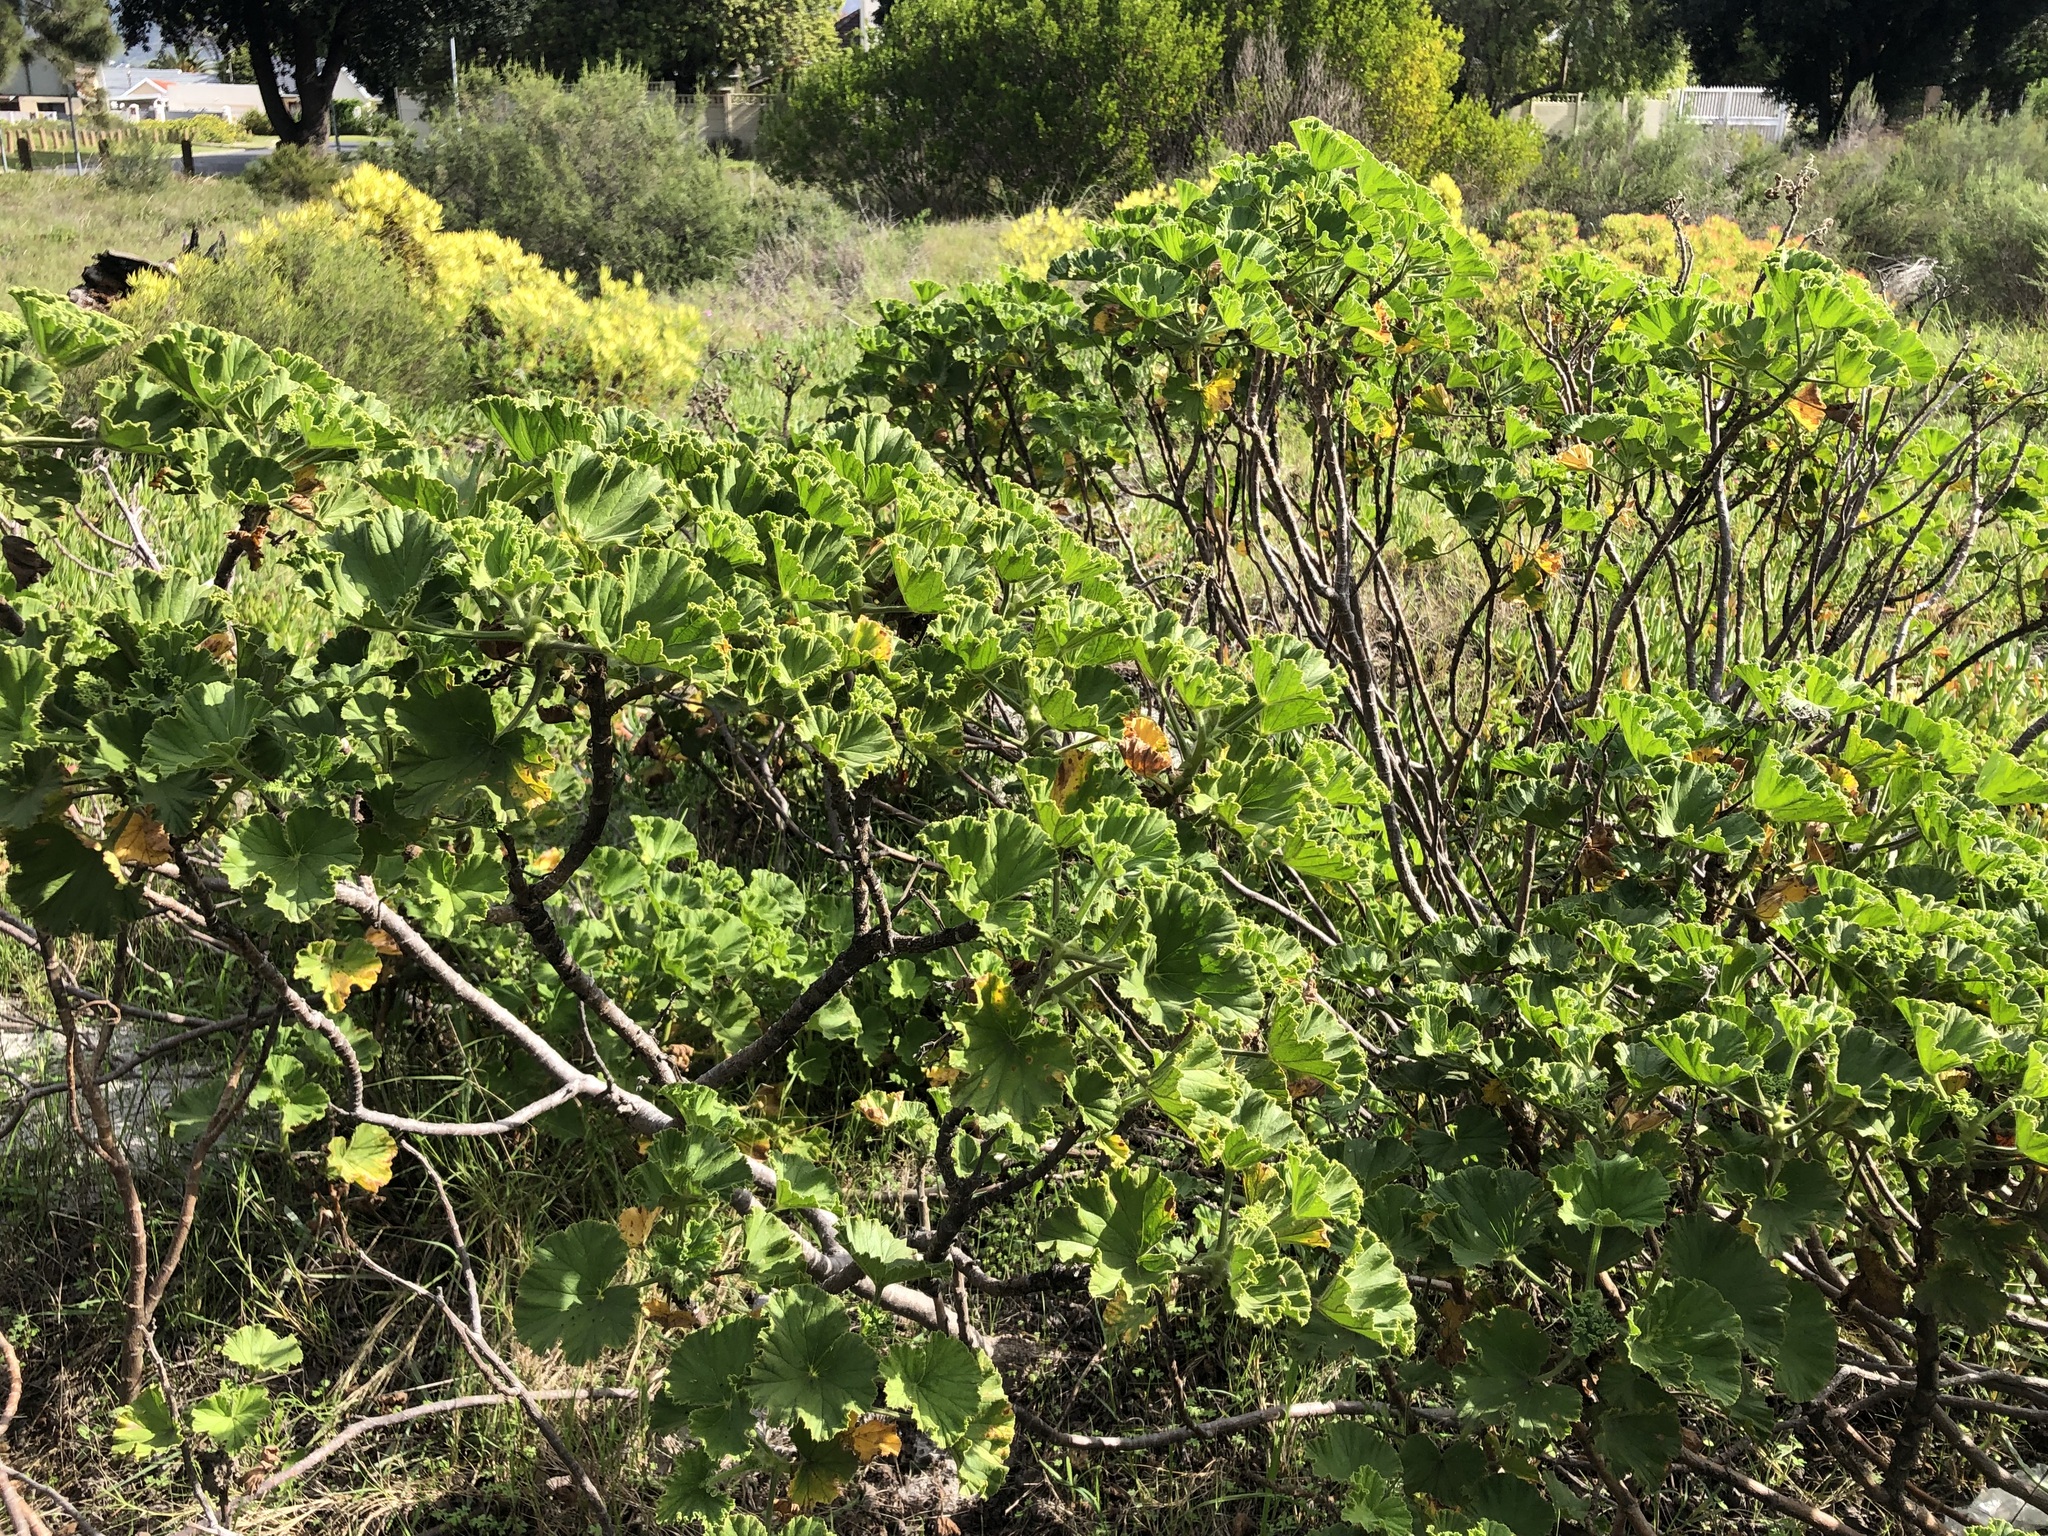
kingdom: Plantae
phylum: Tracheophyta
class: Magnoliopsida
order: Geraniales
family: Geraniaceae
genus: Pelargonium
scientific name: Pelargonium cucullatum
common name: Tree pelargonium
